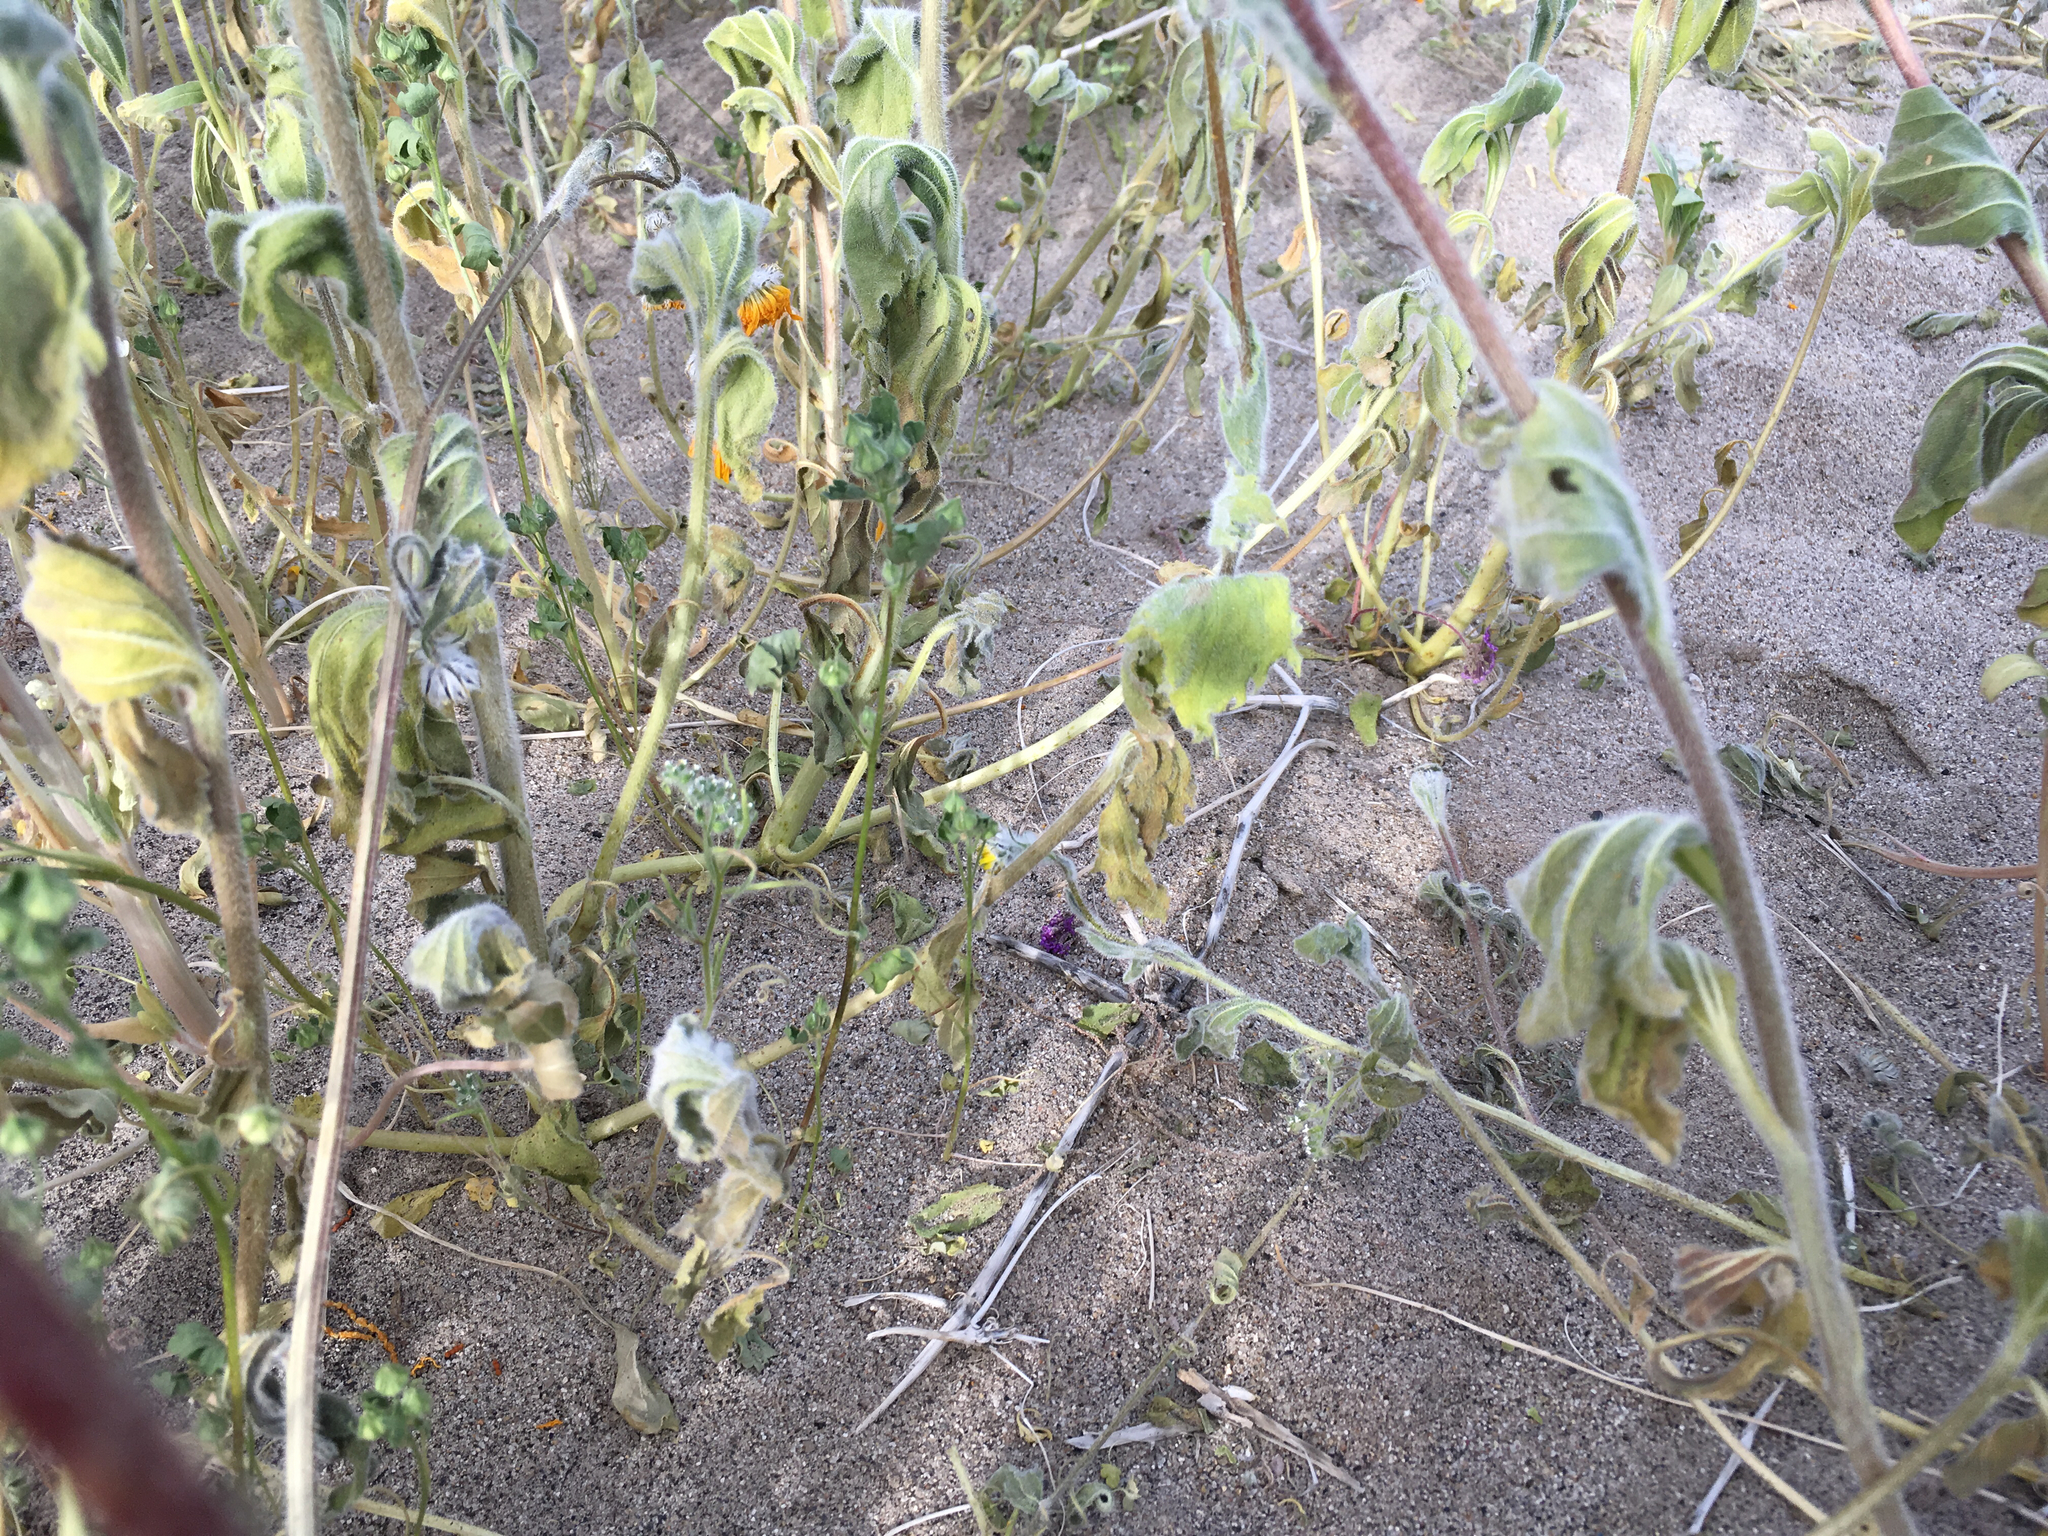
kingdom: Plantae
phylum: Tracheophyta
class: Magnoliopsida
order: Asterales
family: Asteraceae
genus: Geraea
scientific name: Geraea canescens
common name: Desert-gold
